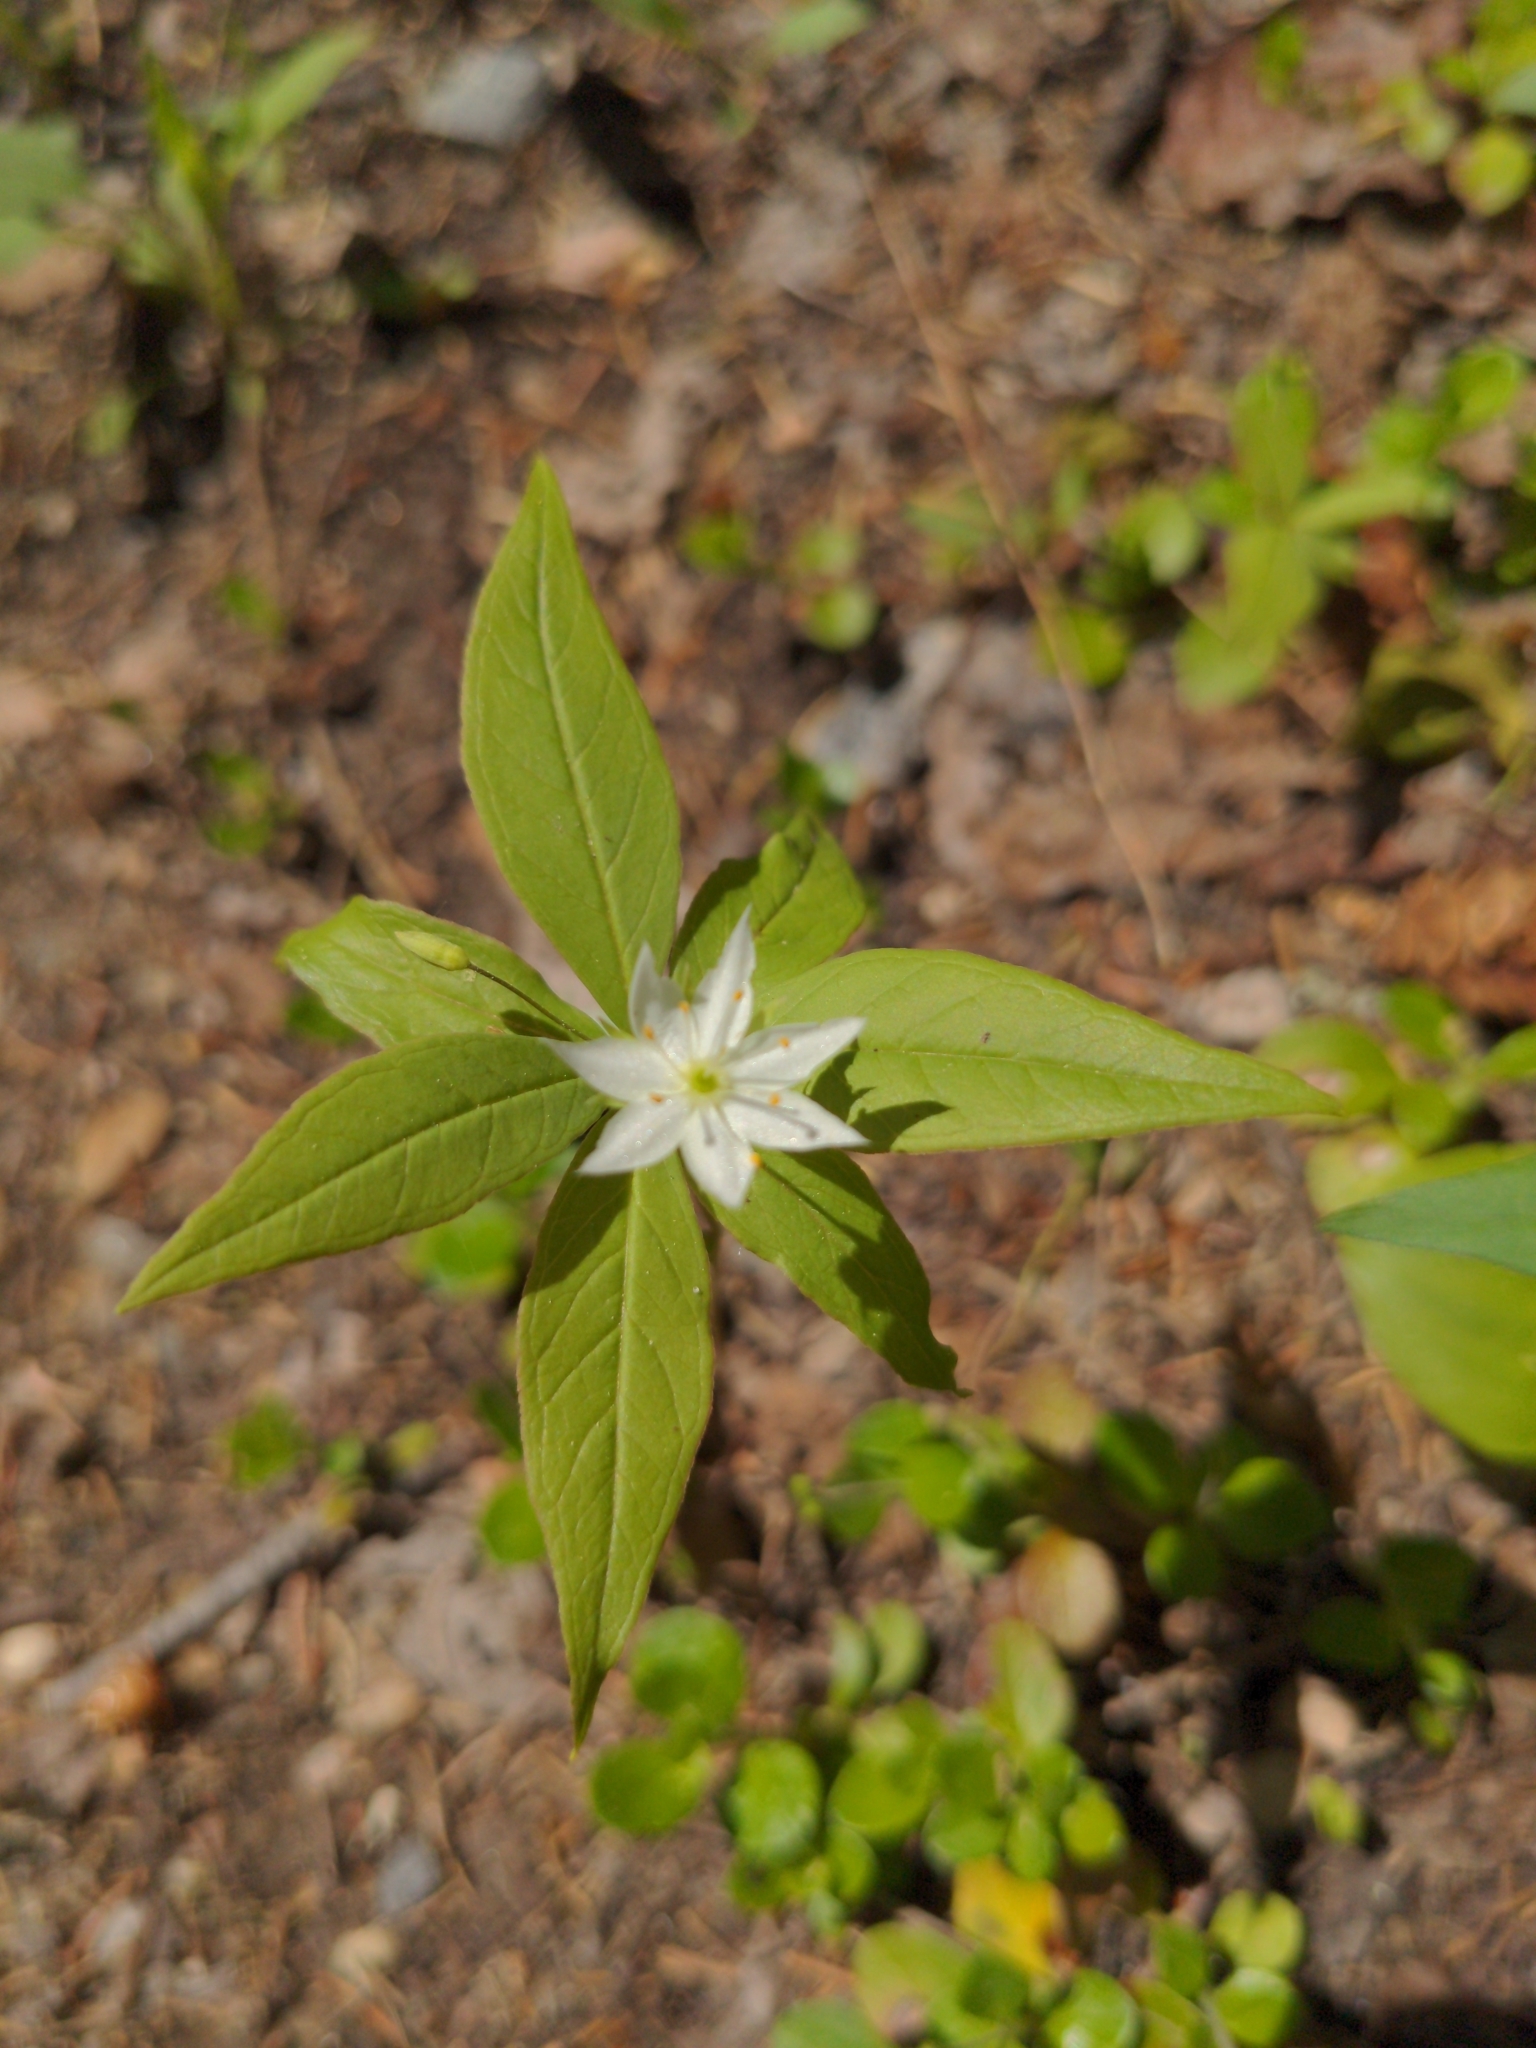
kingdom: Plantae
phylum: Tracheophyta
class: Magnoliopsida
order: Ericales
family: Primulaceae
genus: Lysimachia
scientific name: Lysimachia borealis
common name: American starflower
